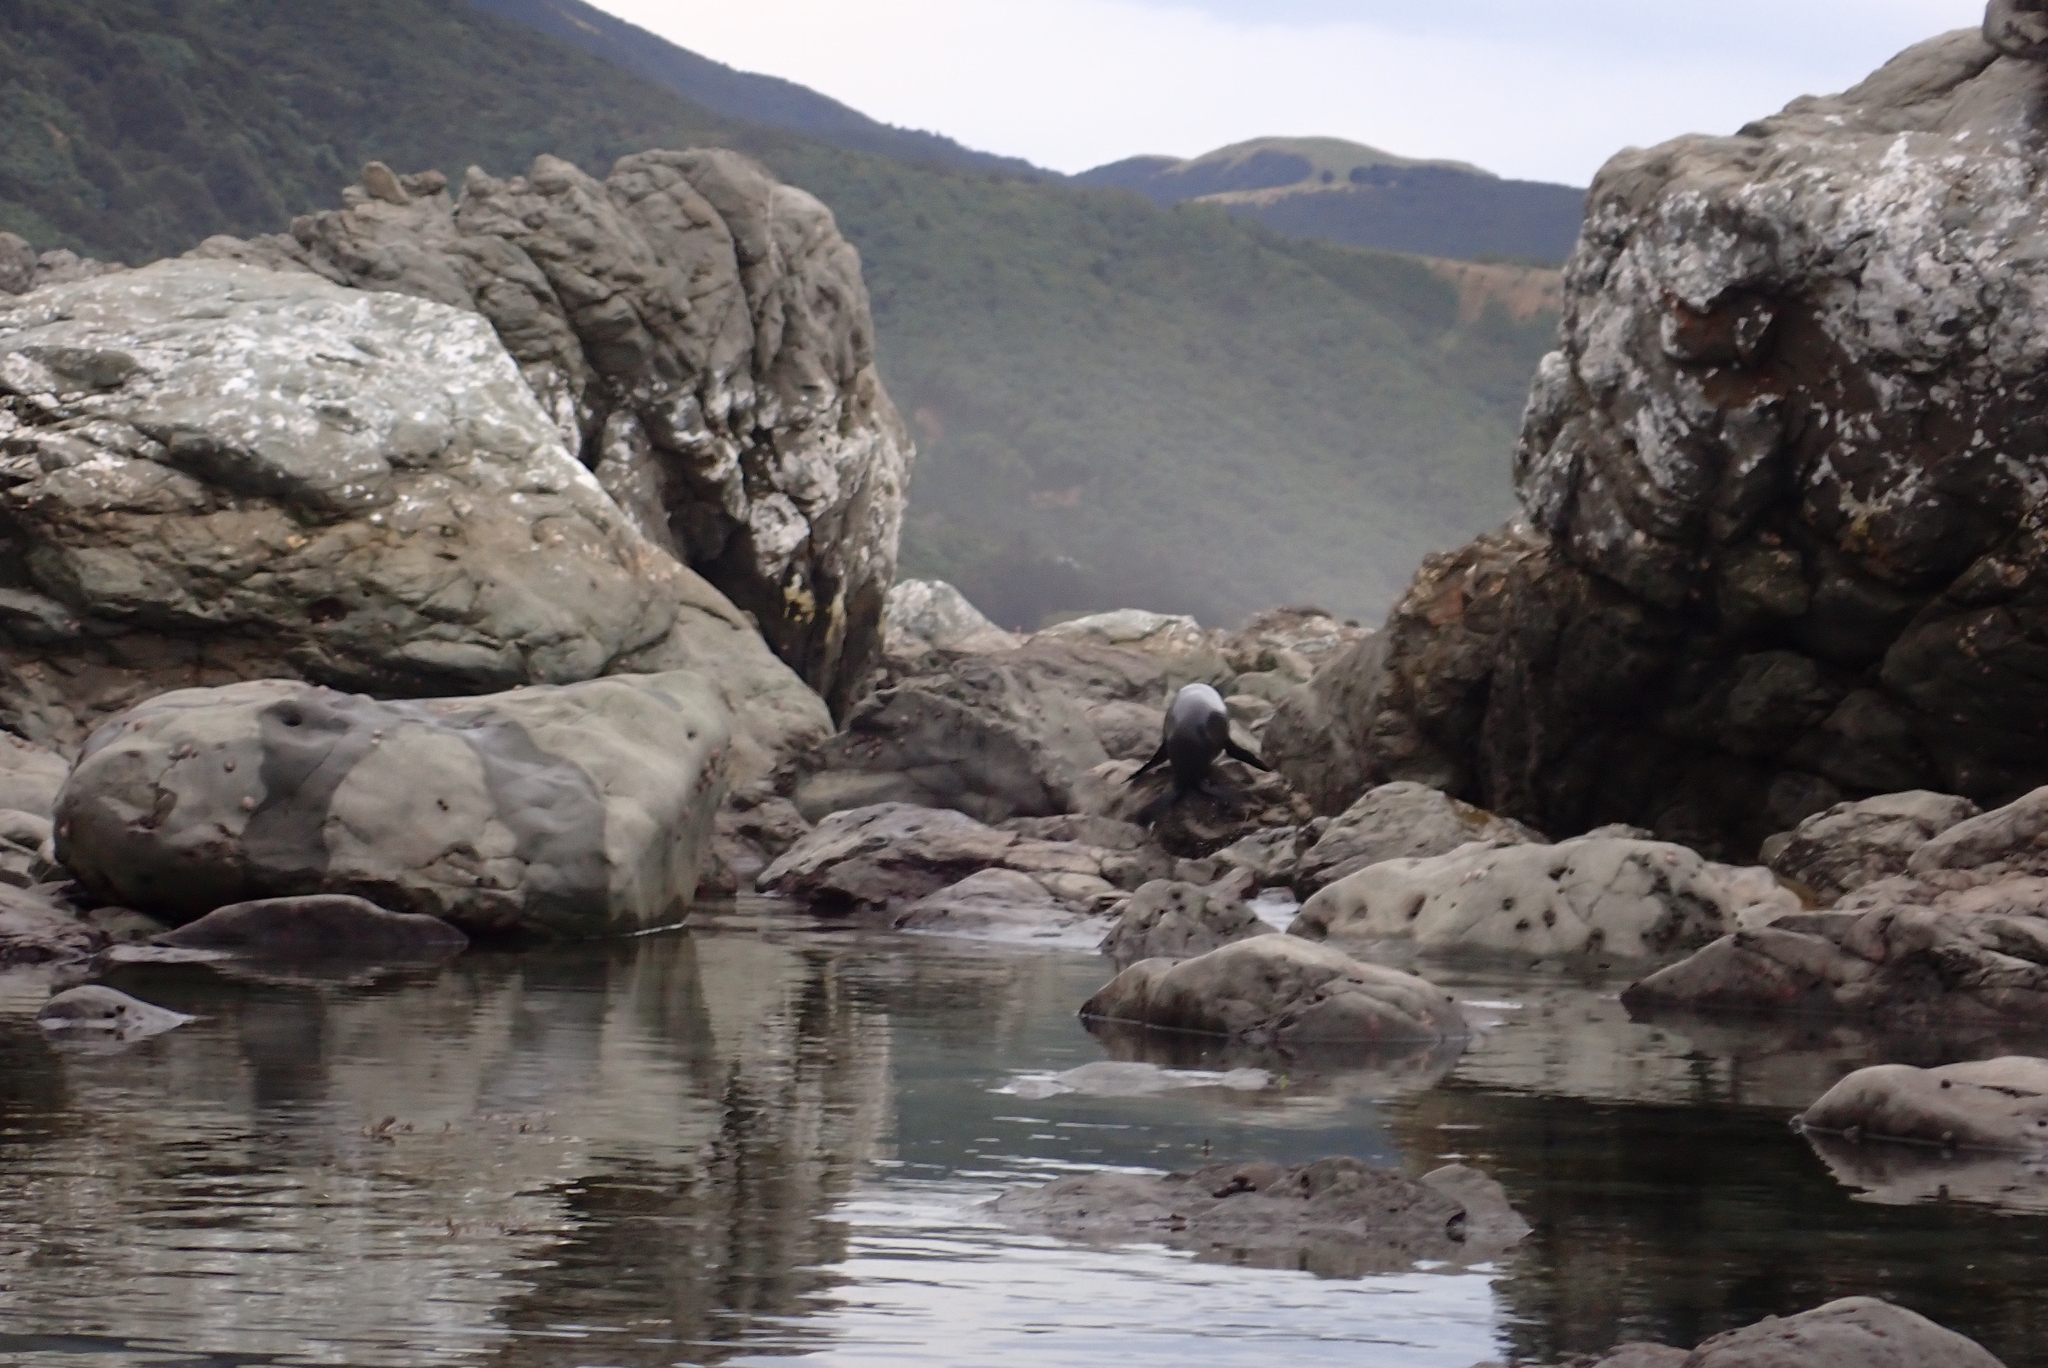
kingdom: Animalia
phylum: Chordata
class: Mammalia
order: Carnivora
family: Otariidae
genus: Arctocephalus
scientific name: Arctocephalus forsteri
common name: New zealand fur seal
